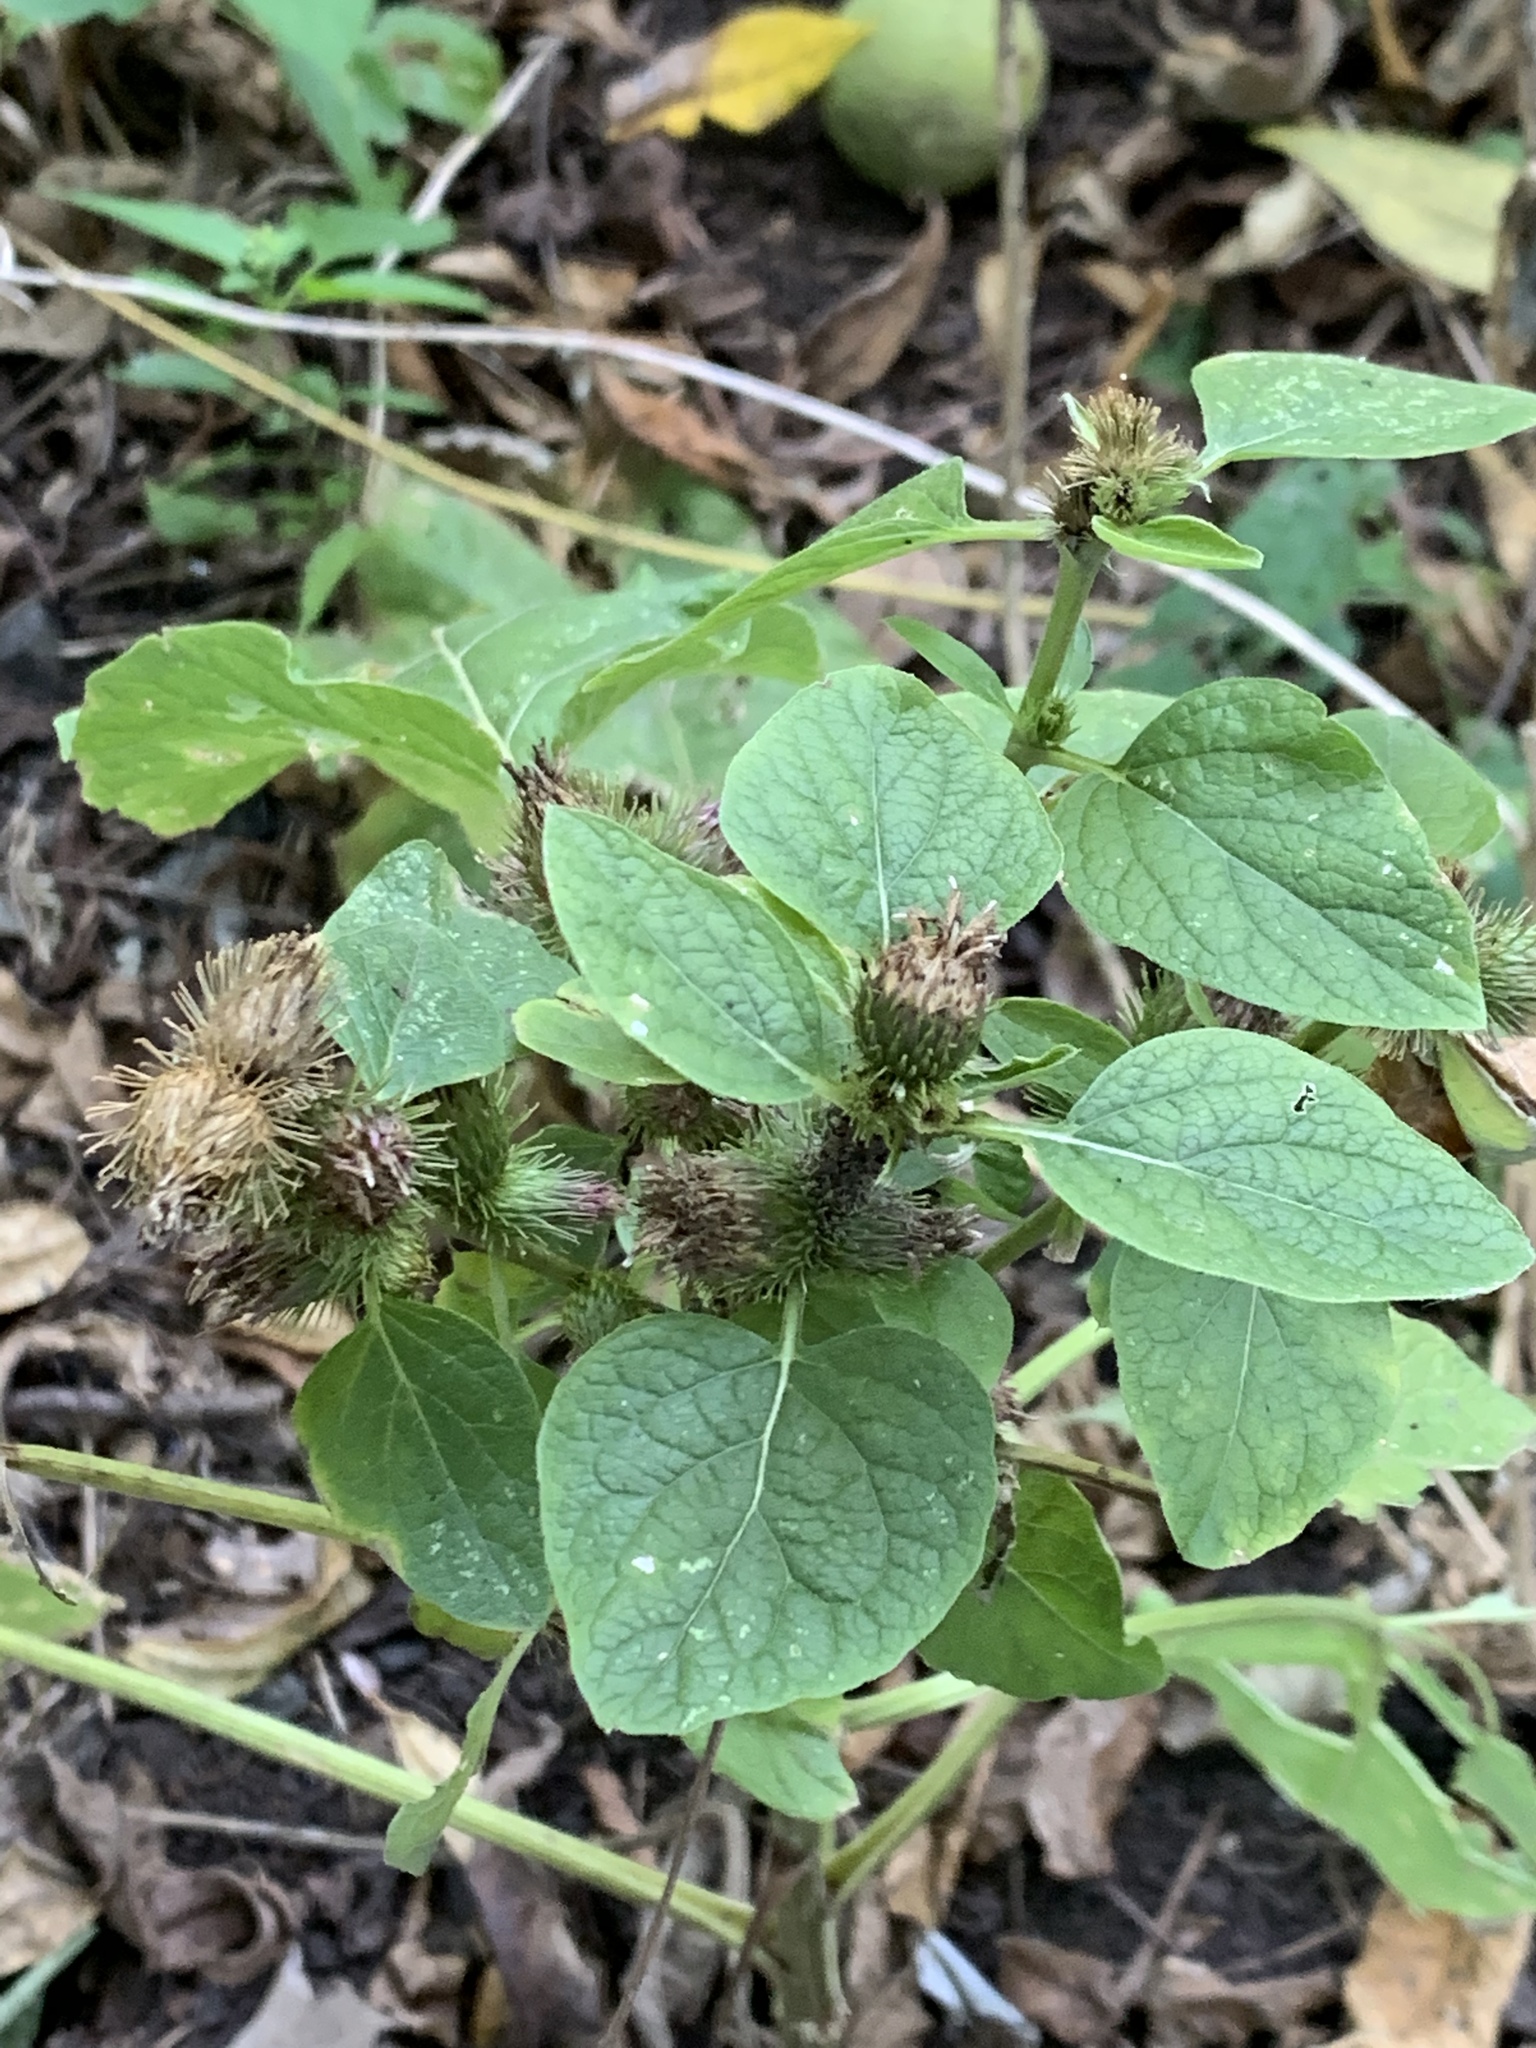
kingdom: Plantae
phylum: Tracheophyta
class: Magnoliopsida
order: Asterales
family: Asteraceae
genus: Arctium
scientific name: Arctium minus
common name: Lesser burdock
